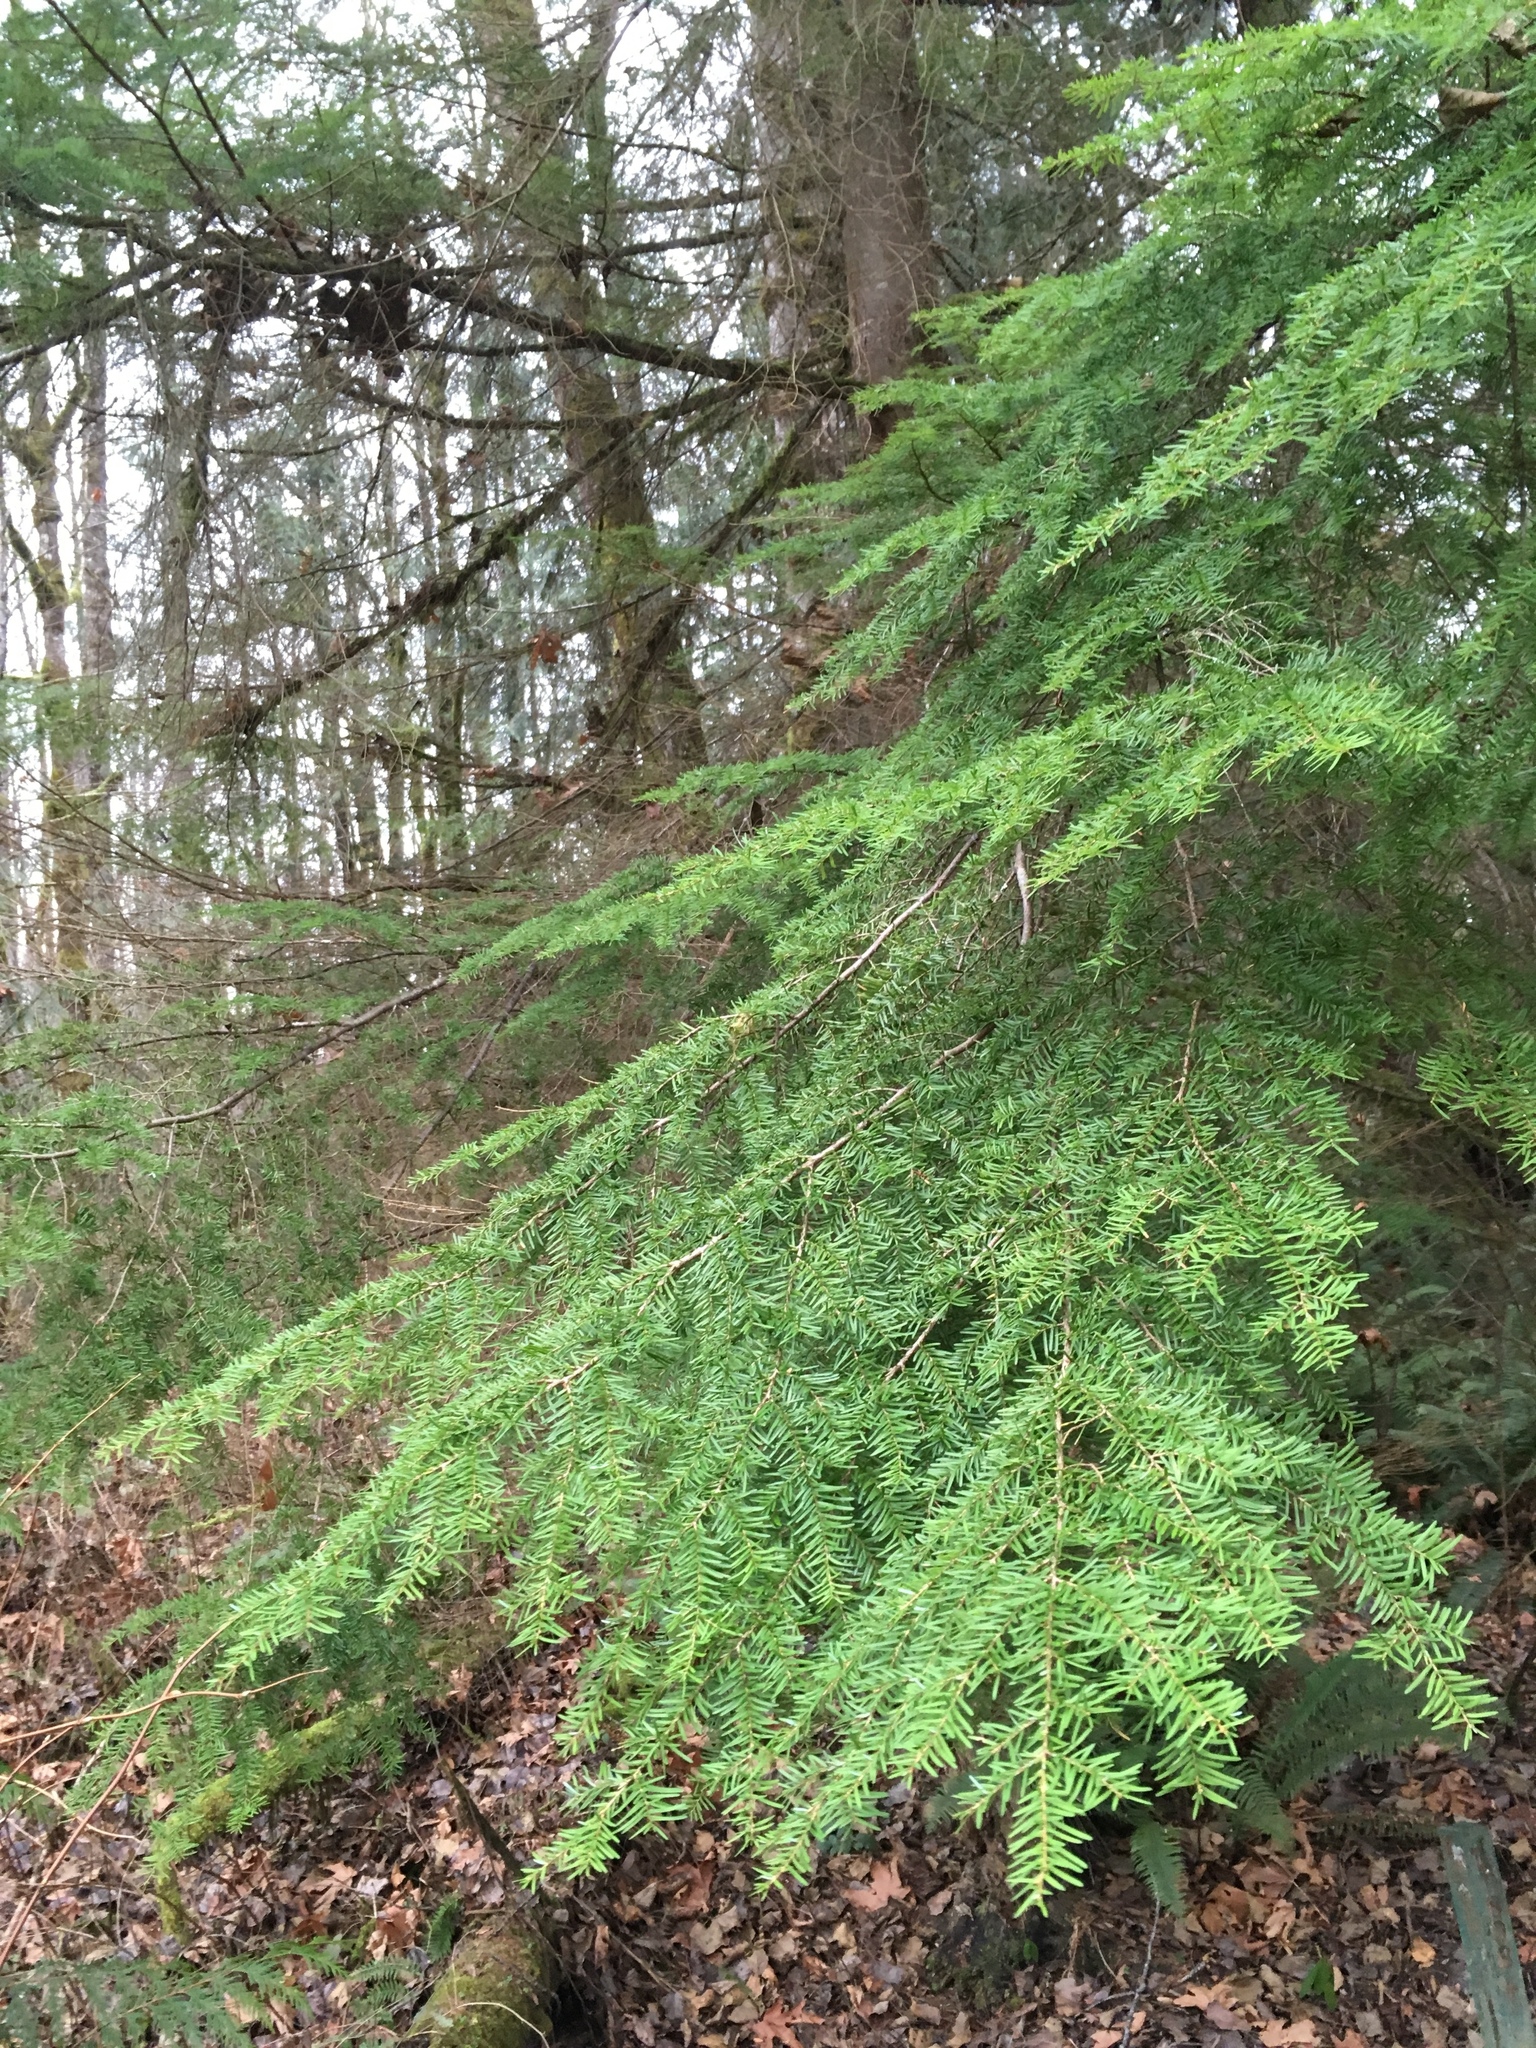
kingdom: Plantae
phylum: Tracheophyta
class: Pinopsida
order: Pinales
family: Pinaceae
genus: Tsuga
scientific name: Tsuga heterophylla
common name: Western hemlock
